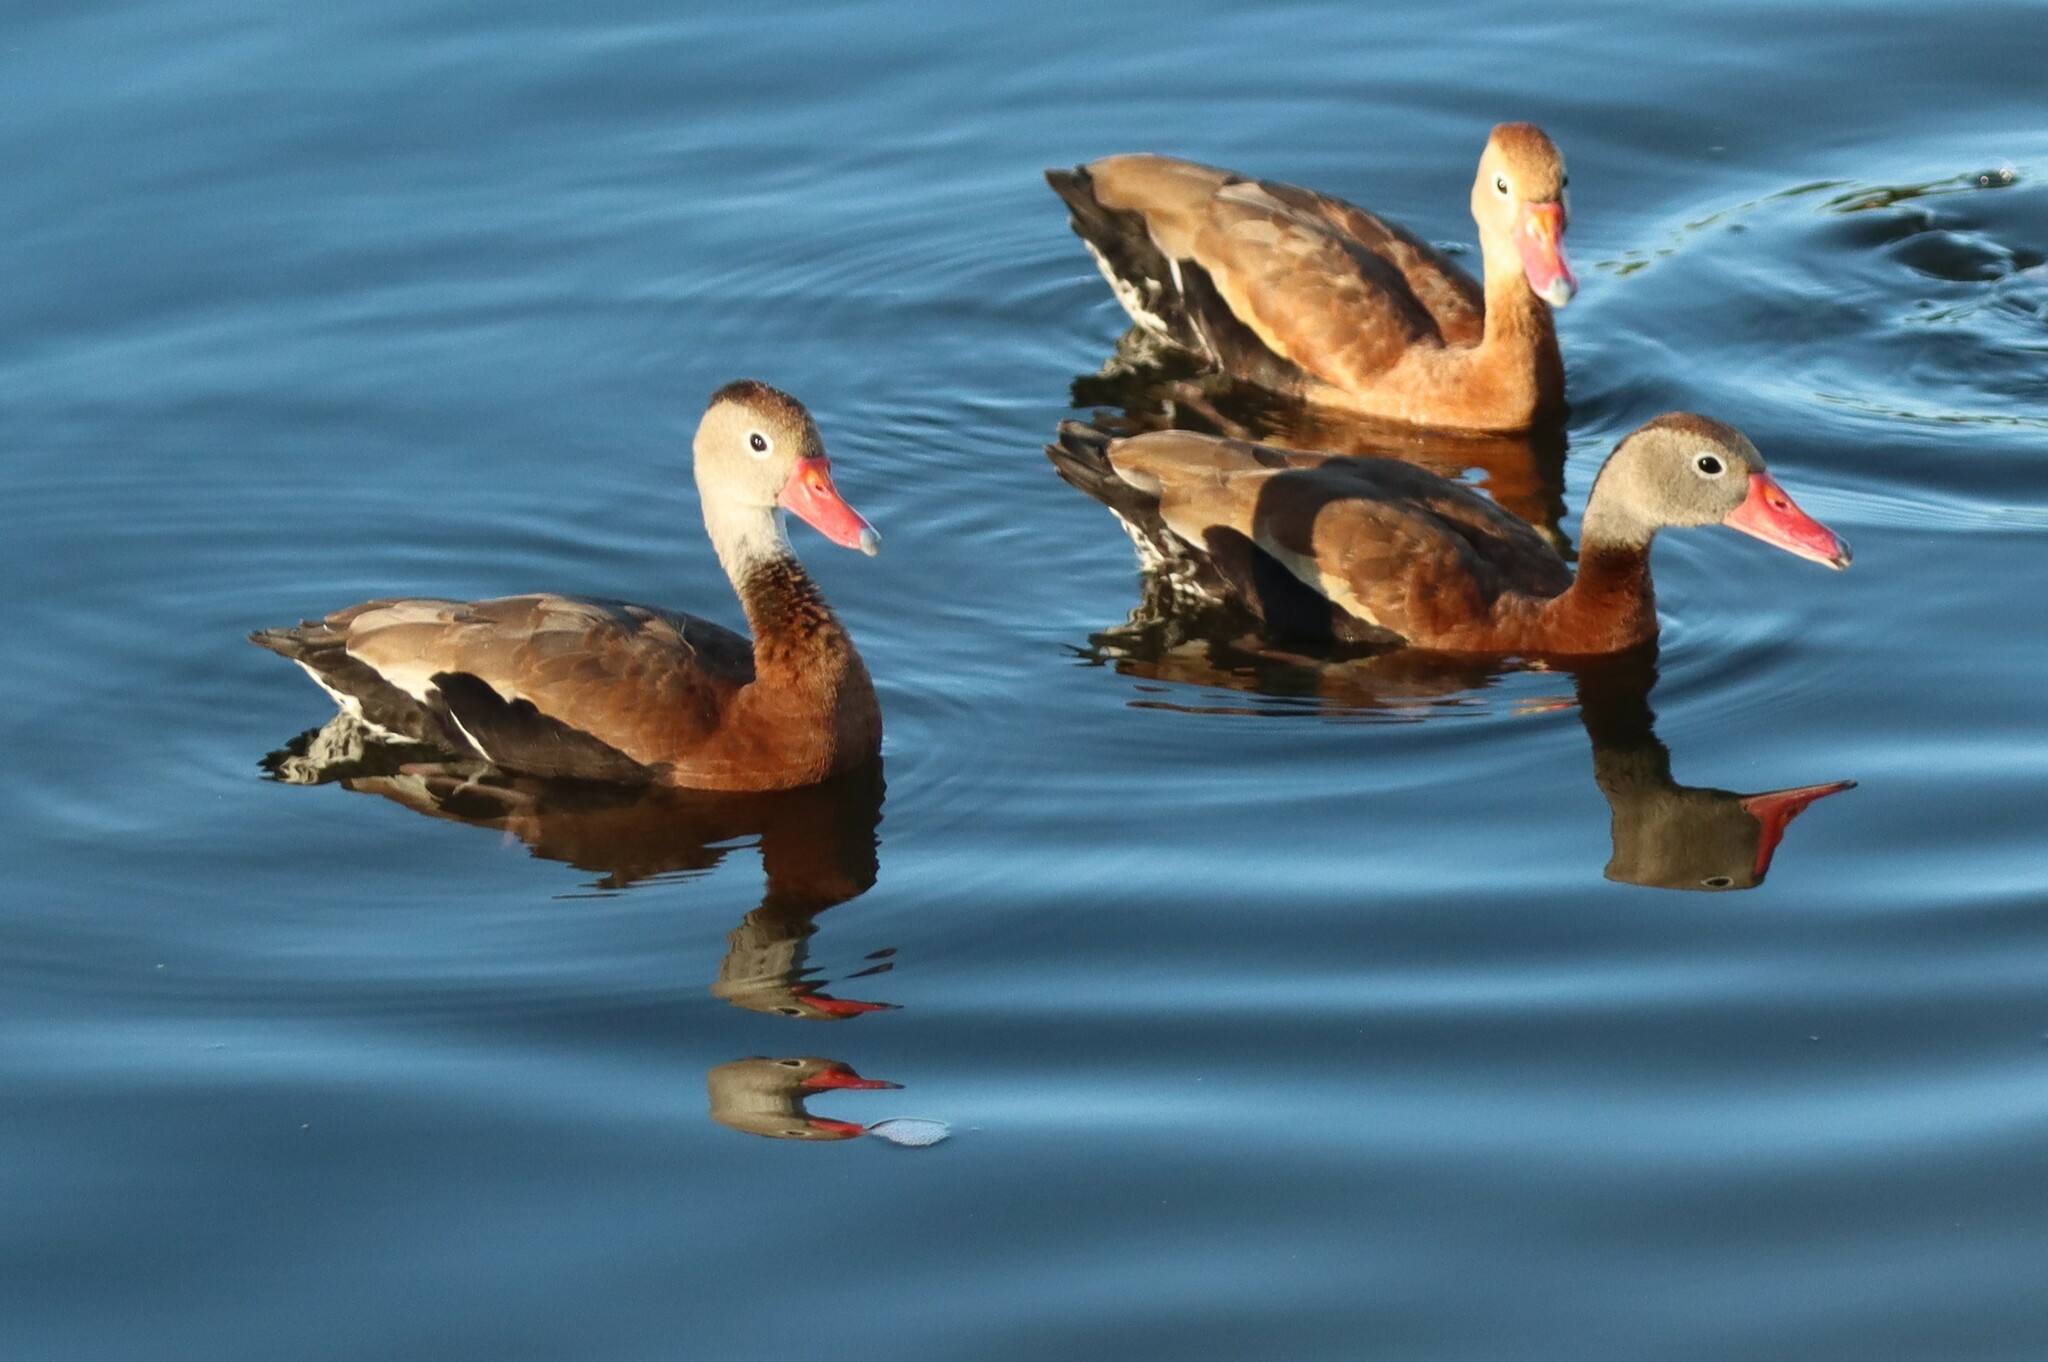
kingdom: Animalia
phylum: Chordata
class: Aves
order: Anseriformes
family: Anatidae
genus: Dendrocygna
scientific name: Dendrocygna autumnalis
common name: Black-bellied whistling duck
